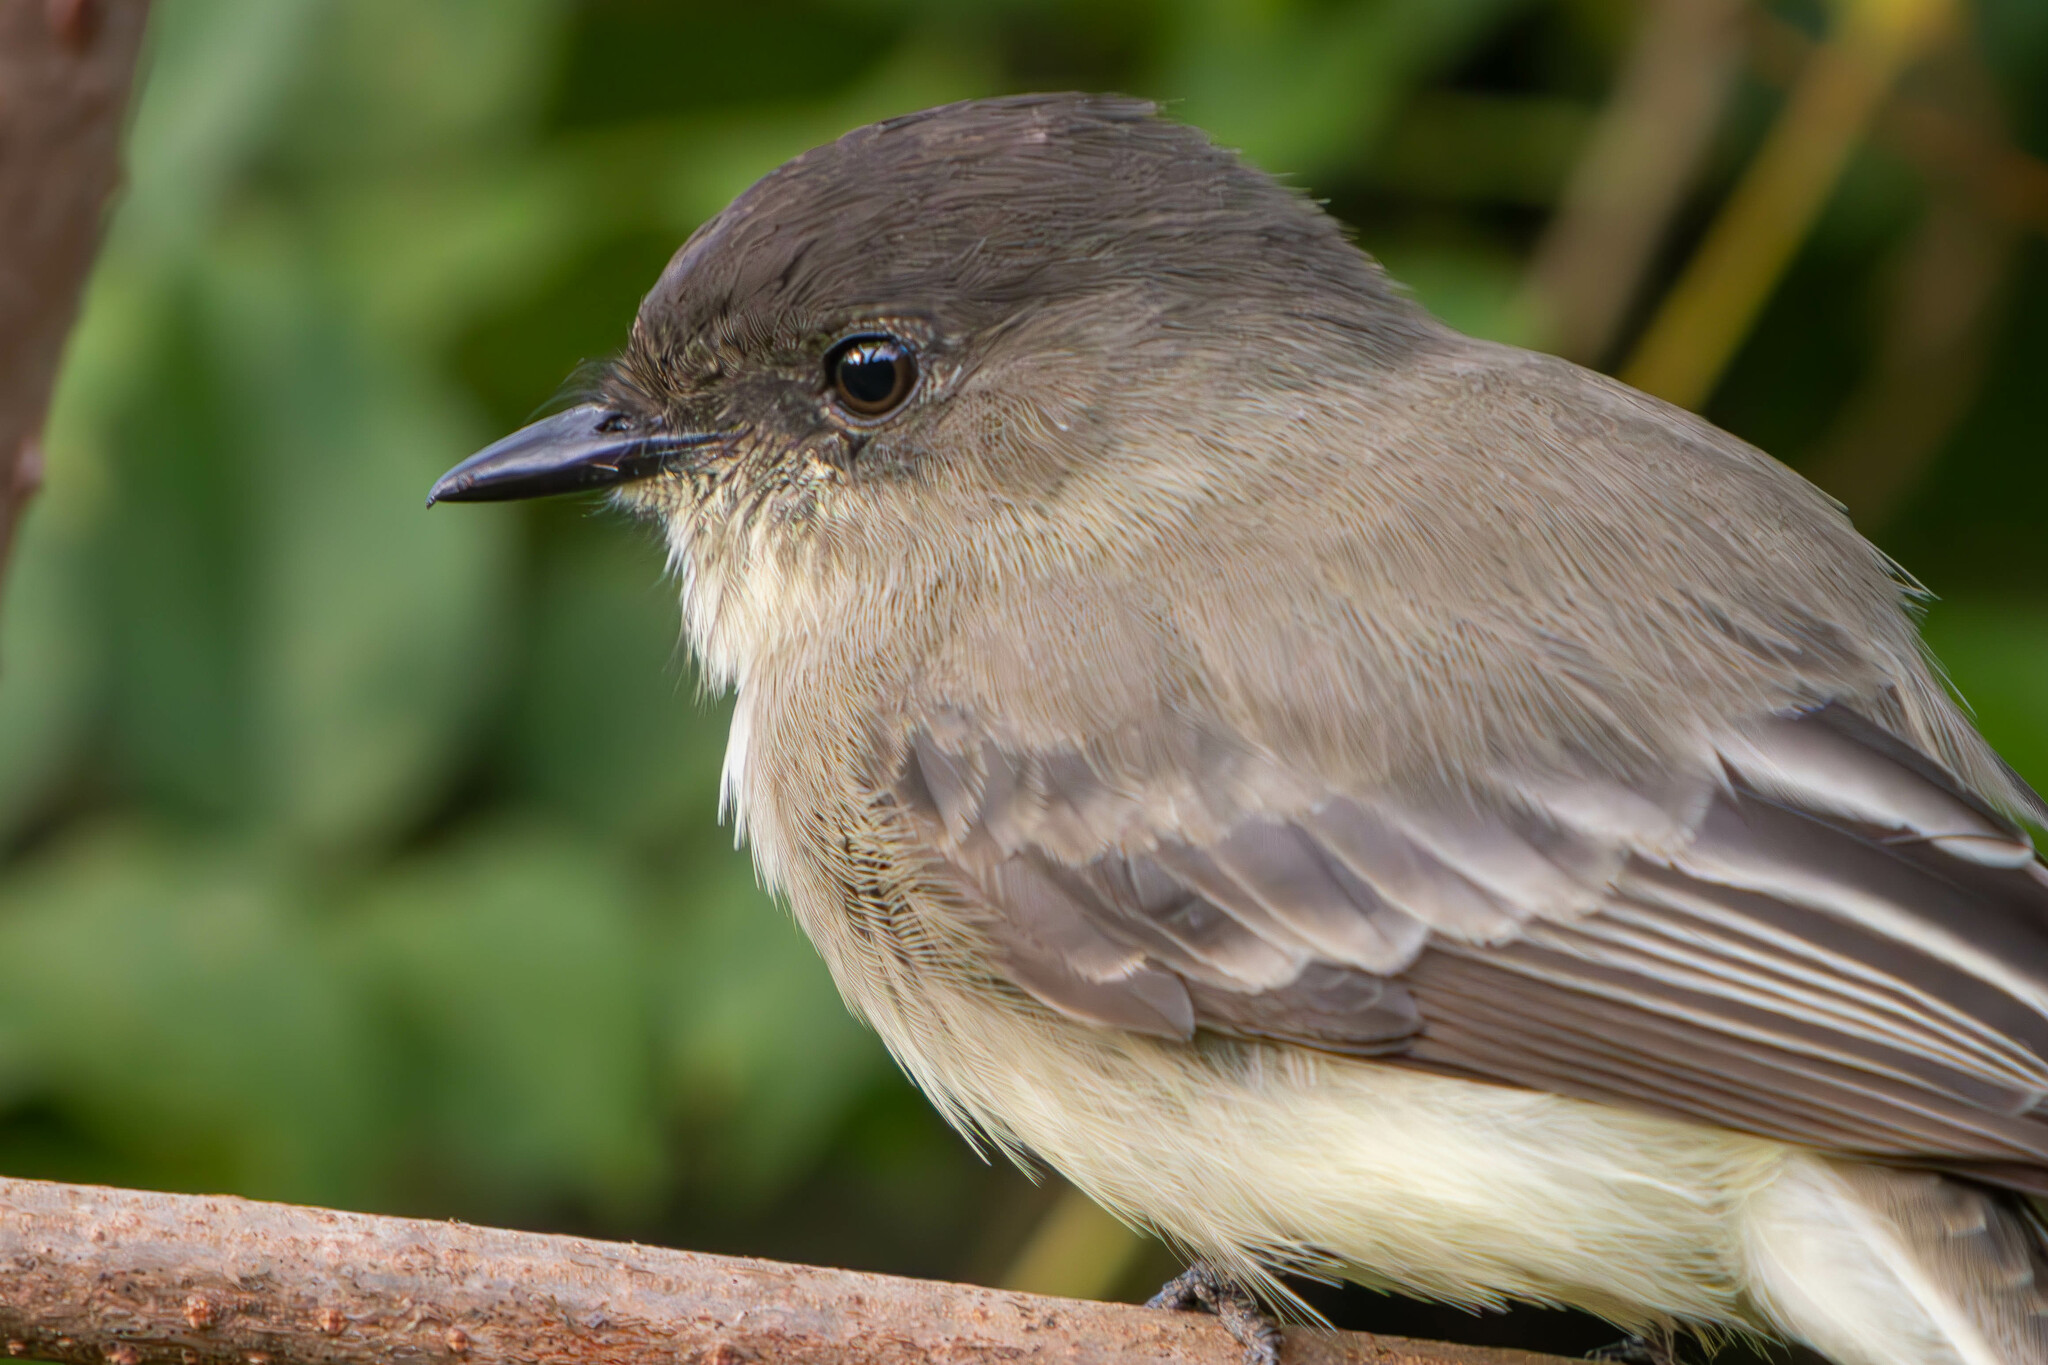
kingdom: Animalia
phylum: Chordata
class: Aves
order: Passeriformes
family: Tyrannidae
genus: Sayornis
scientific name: Sayornis phoebe
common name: Eastern phoebe
